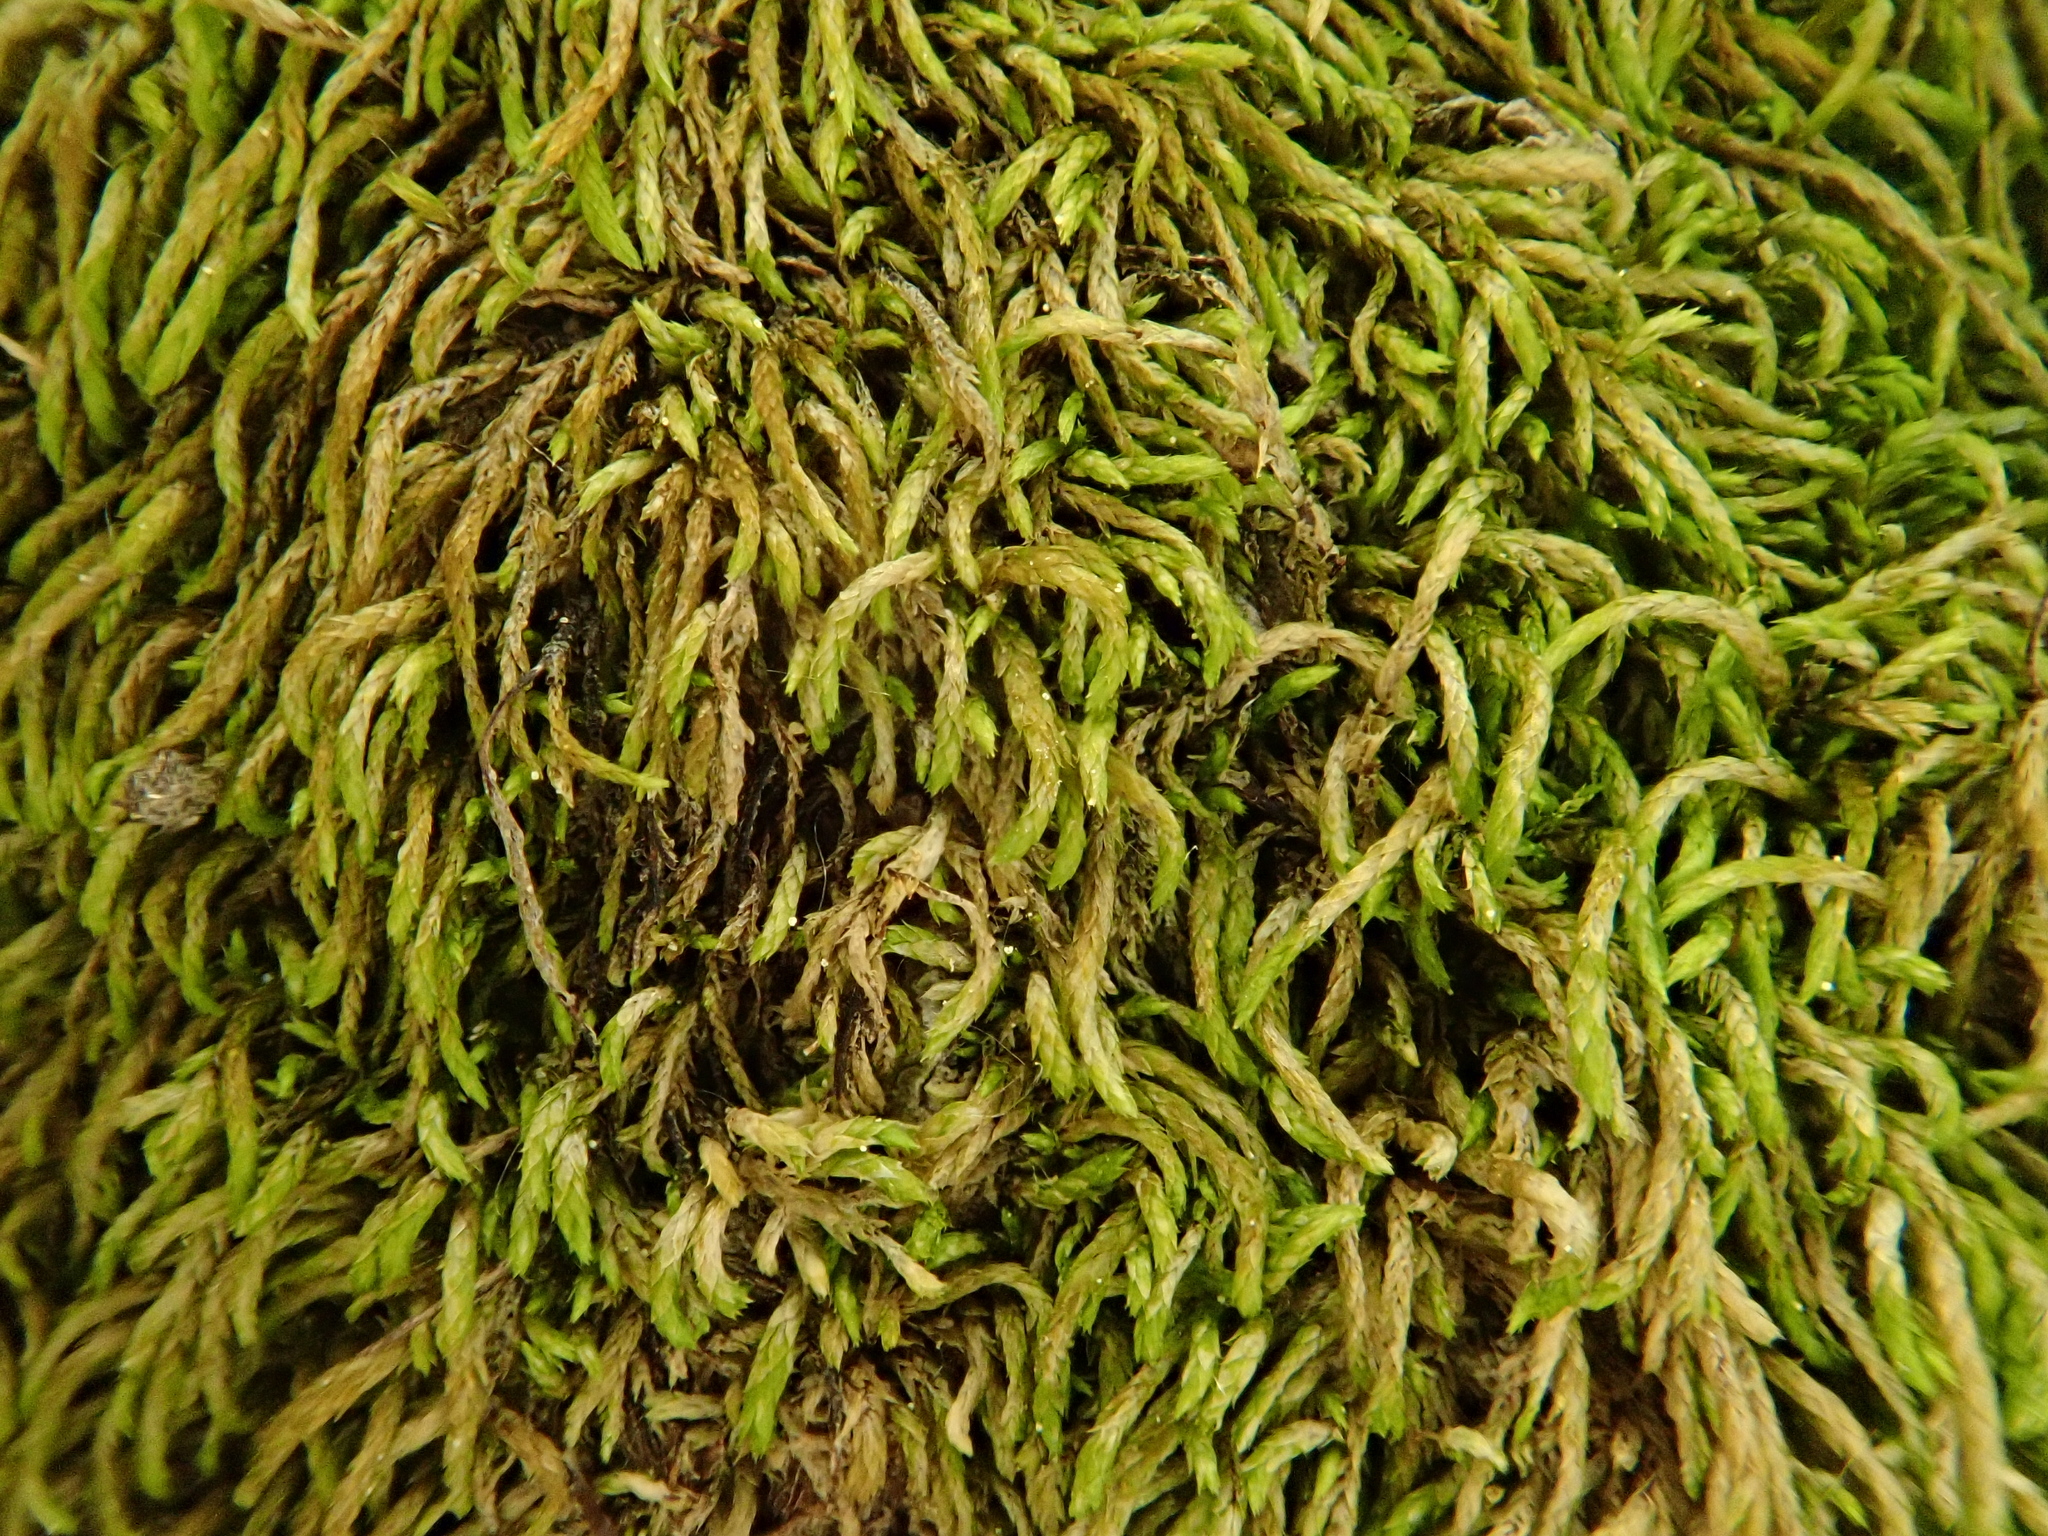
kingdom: Plantae
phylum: Bryophyta
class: Bryopsida
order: Hypnales
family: Pterigynandraceae
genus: Pterigynandrum
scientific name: Pterigynandrum filiforme
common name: Capillary wing moss
